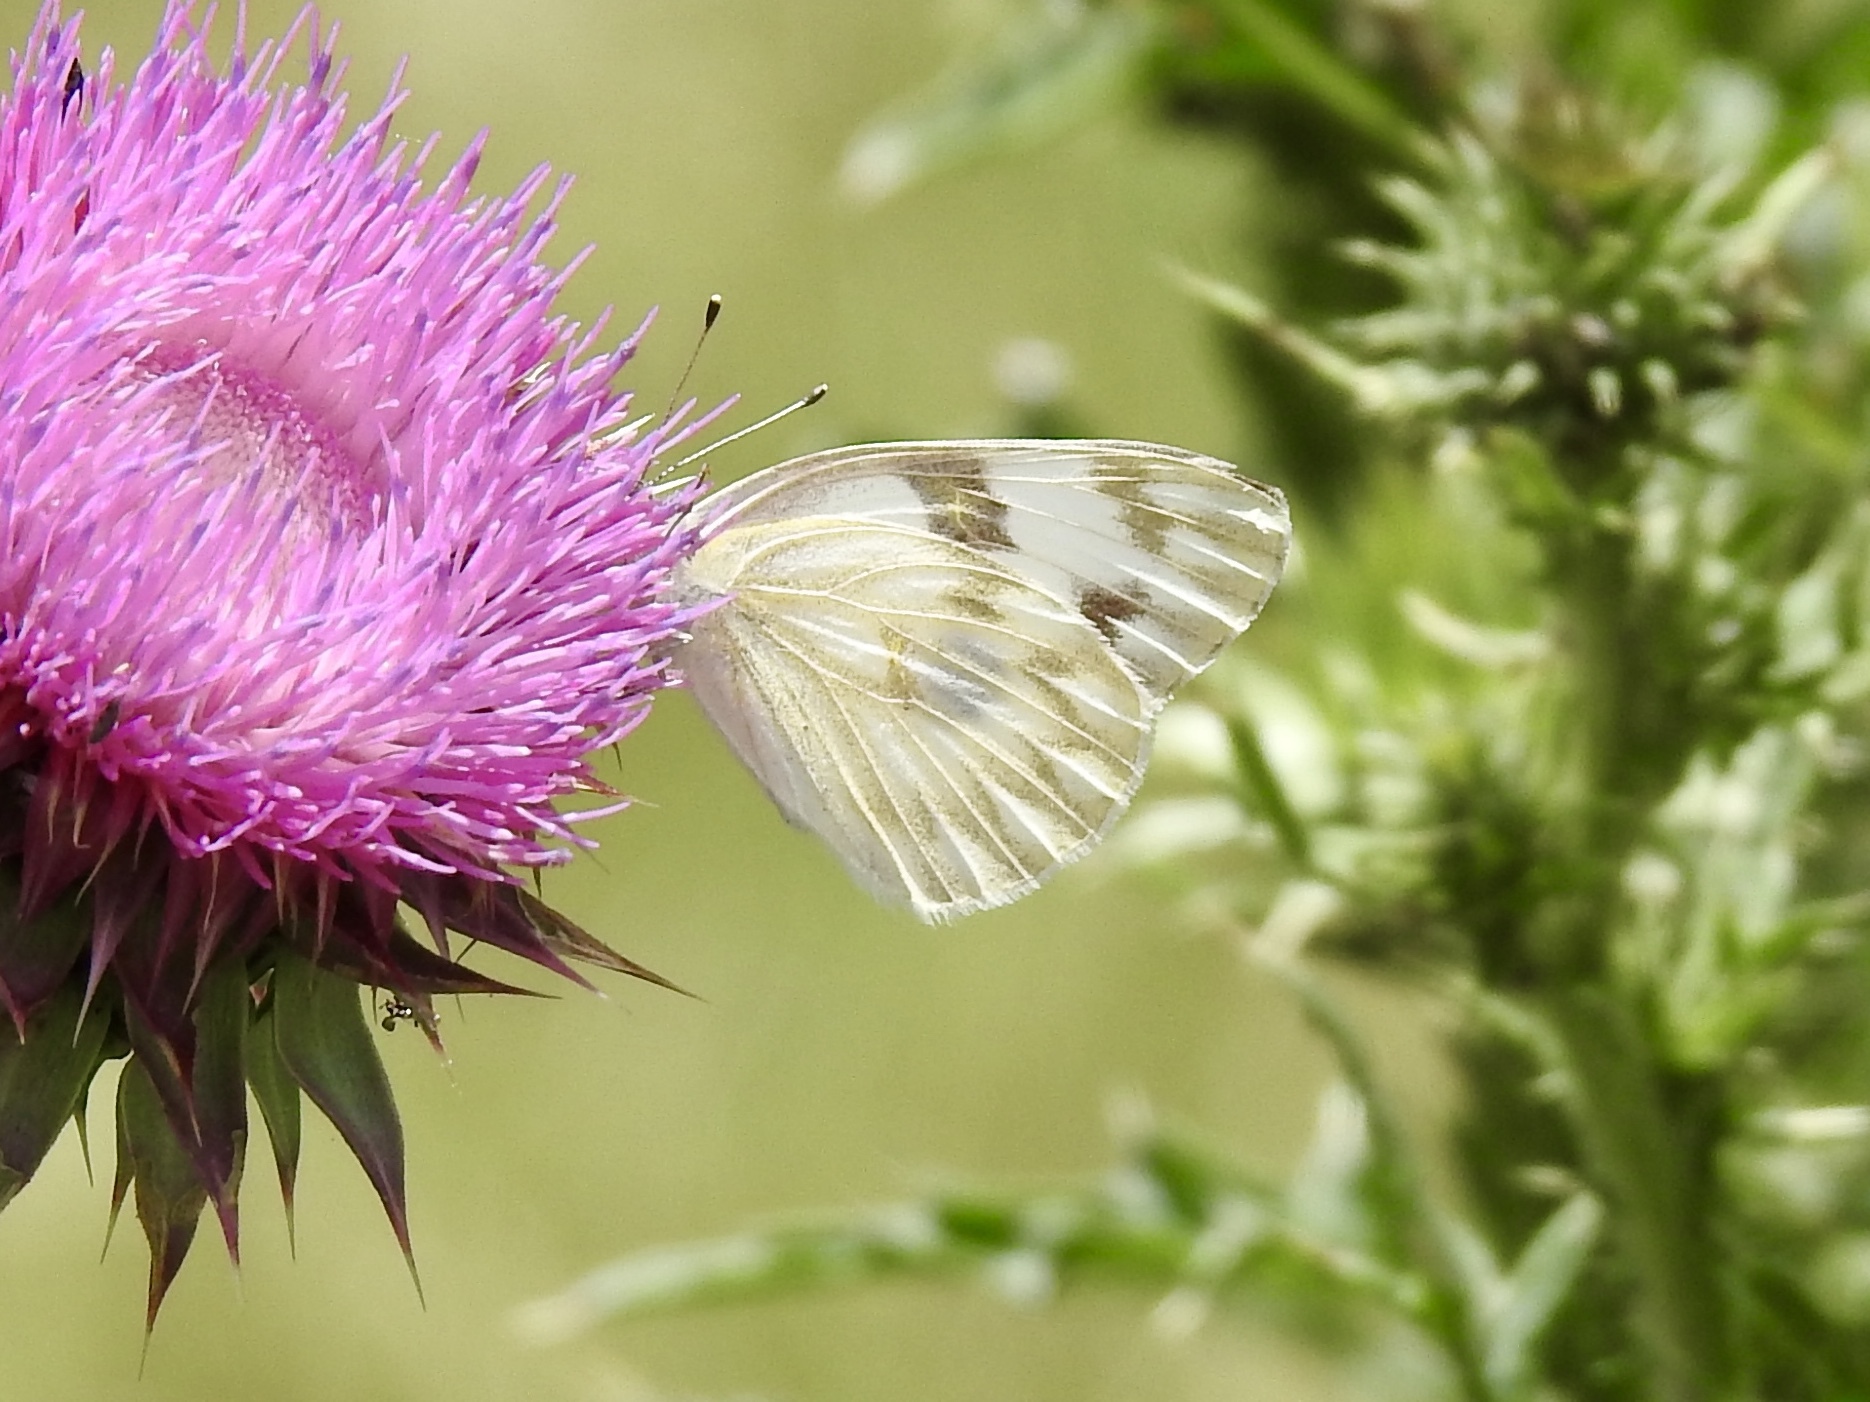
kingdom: Animalia
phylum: Arthropoda
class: Insecta
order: Lepidoptera
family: Pieridae
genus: Pontia
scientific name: Pontia protodice
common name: Checkered white
